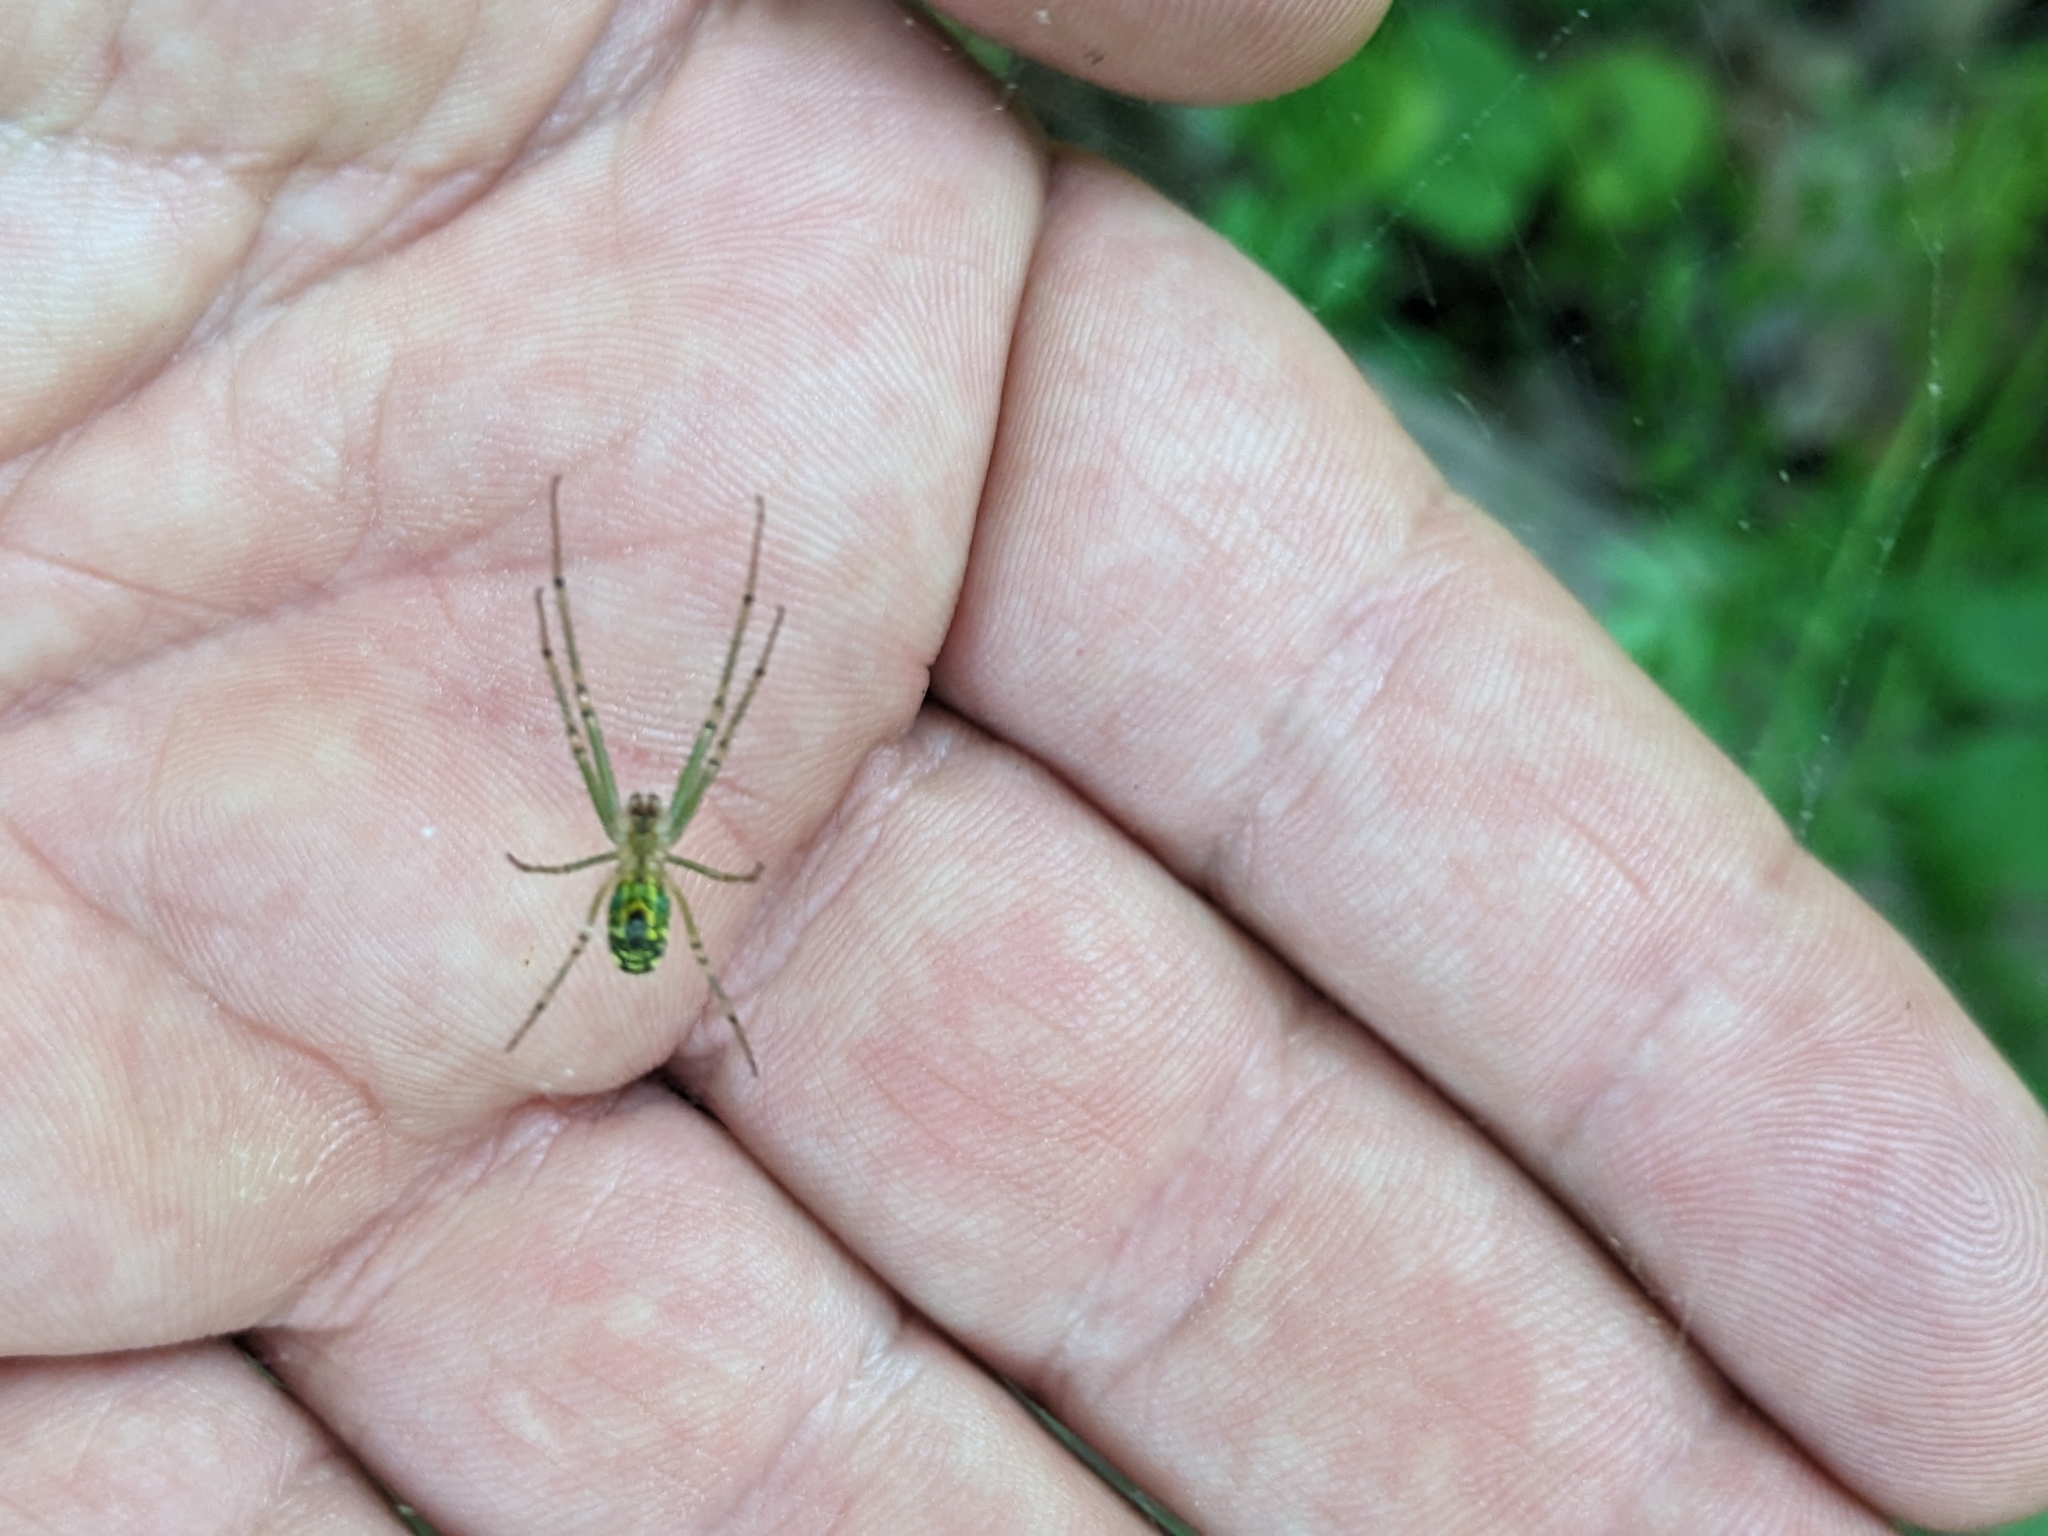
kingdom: Animalia
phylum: Arthropoda
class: Arachnida
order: Araneae
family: Tetragnathidae
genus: Leucauge
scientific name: Leucauge venusta
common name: Longjawed orb weavers
